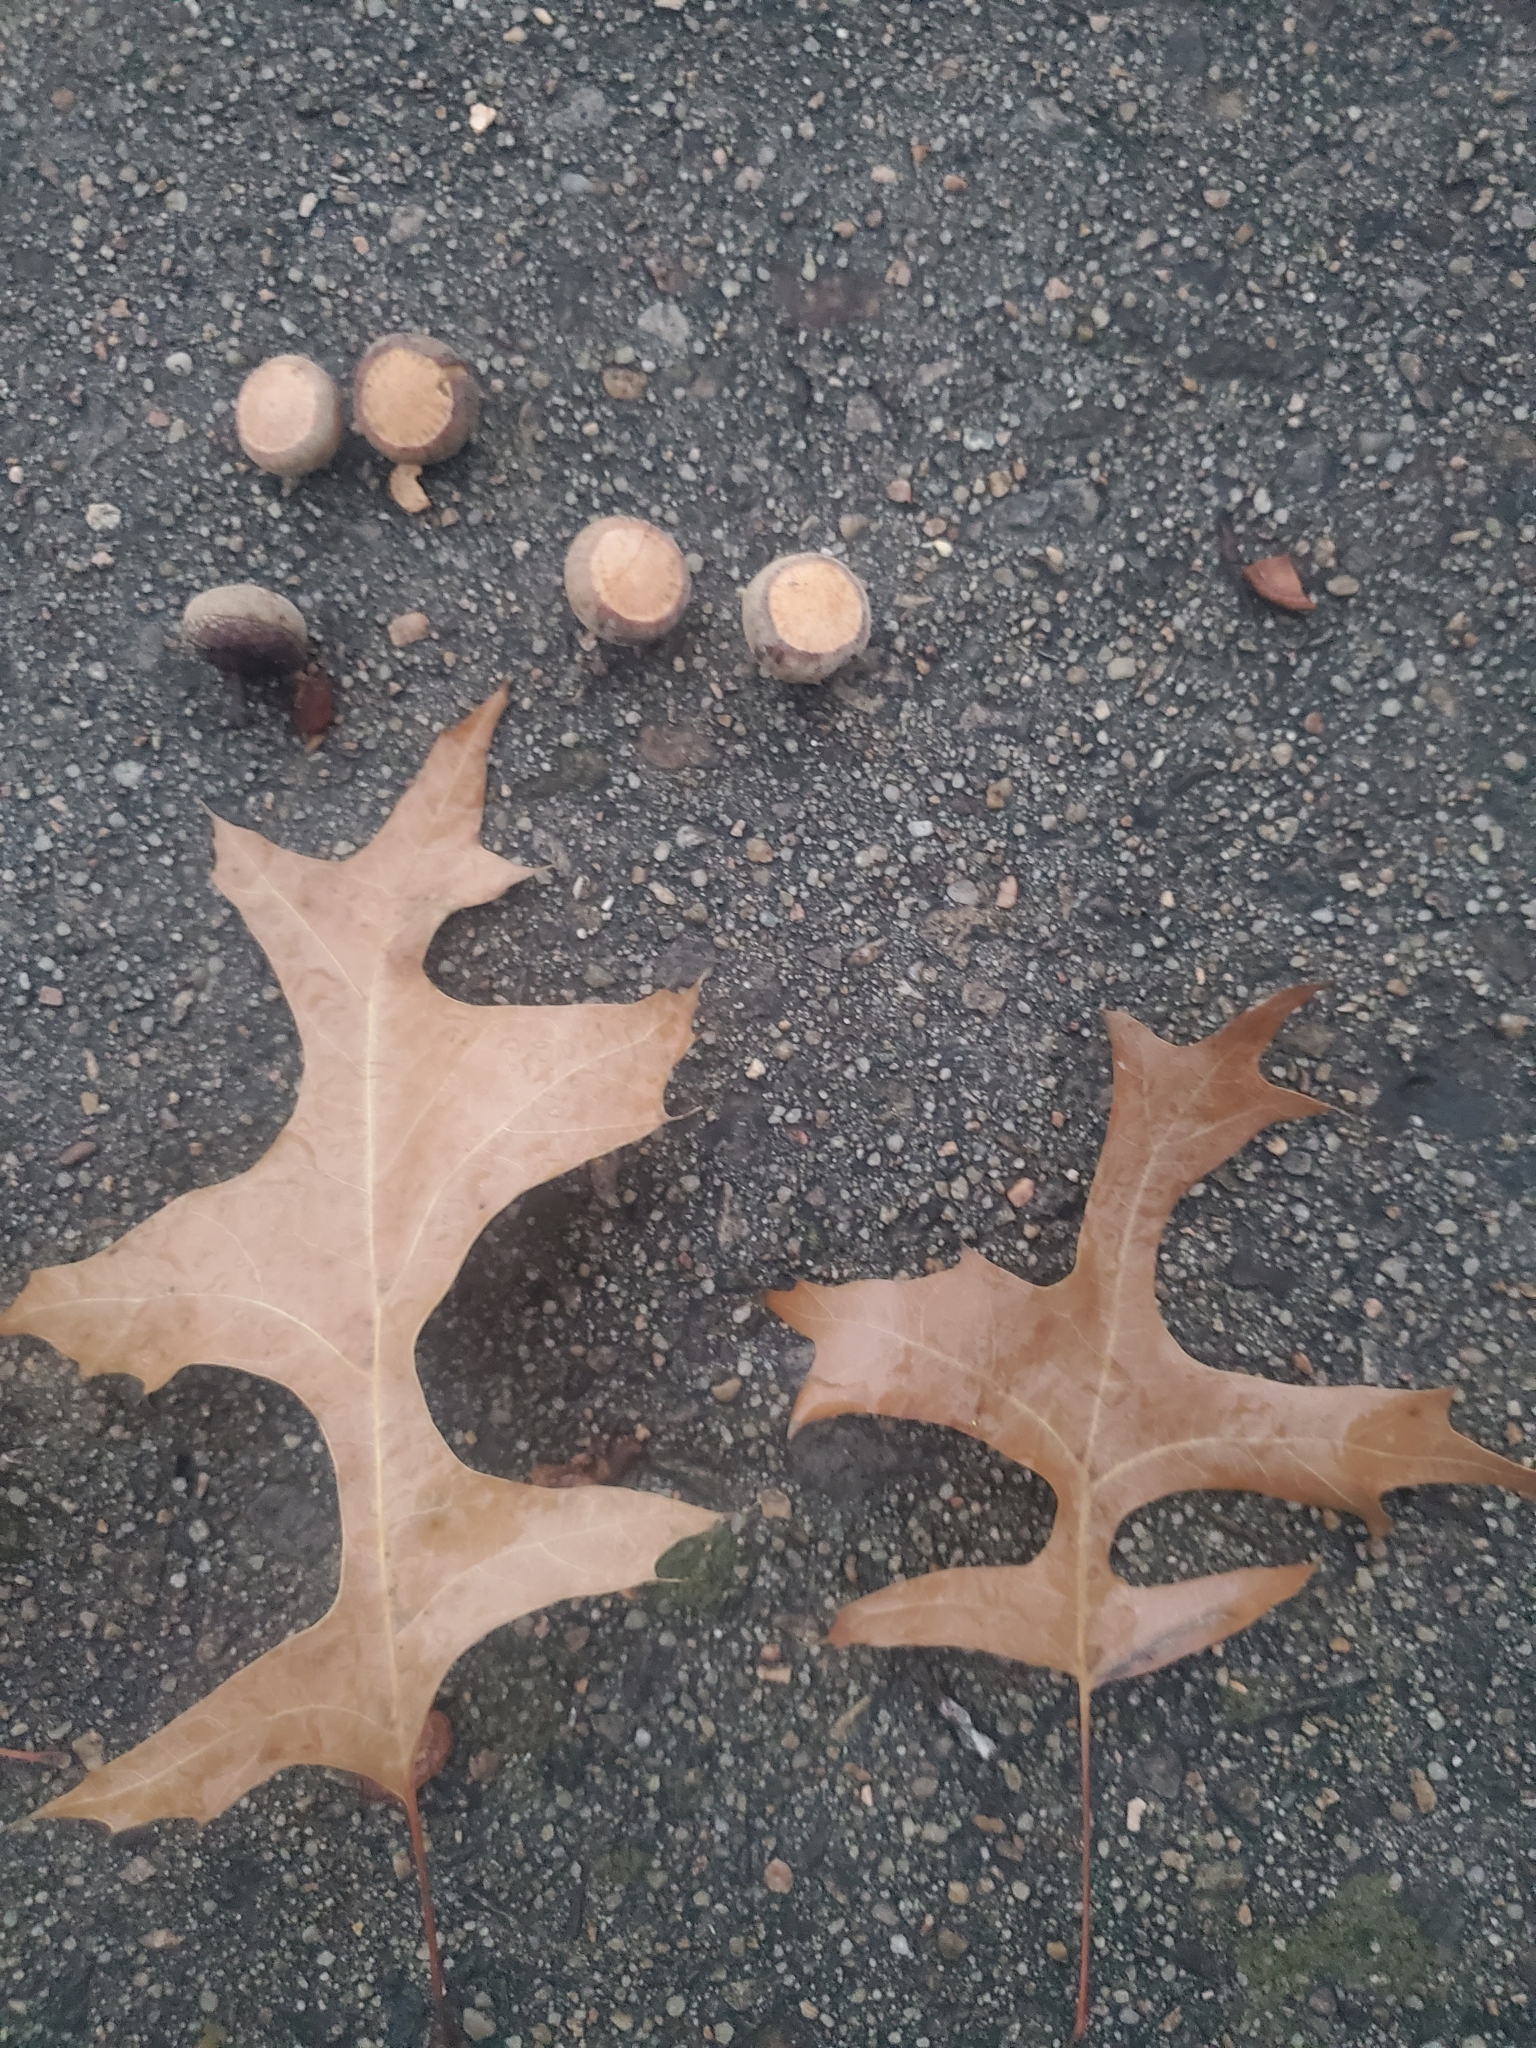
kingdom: Plantae
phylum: Tracheophyta
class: Magnoliopsida
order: Fagales
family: Fagaceae
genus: Quercus
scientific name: Quercus palustris
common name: Pin oak
